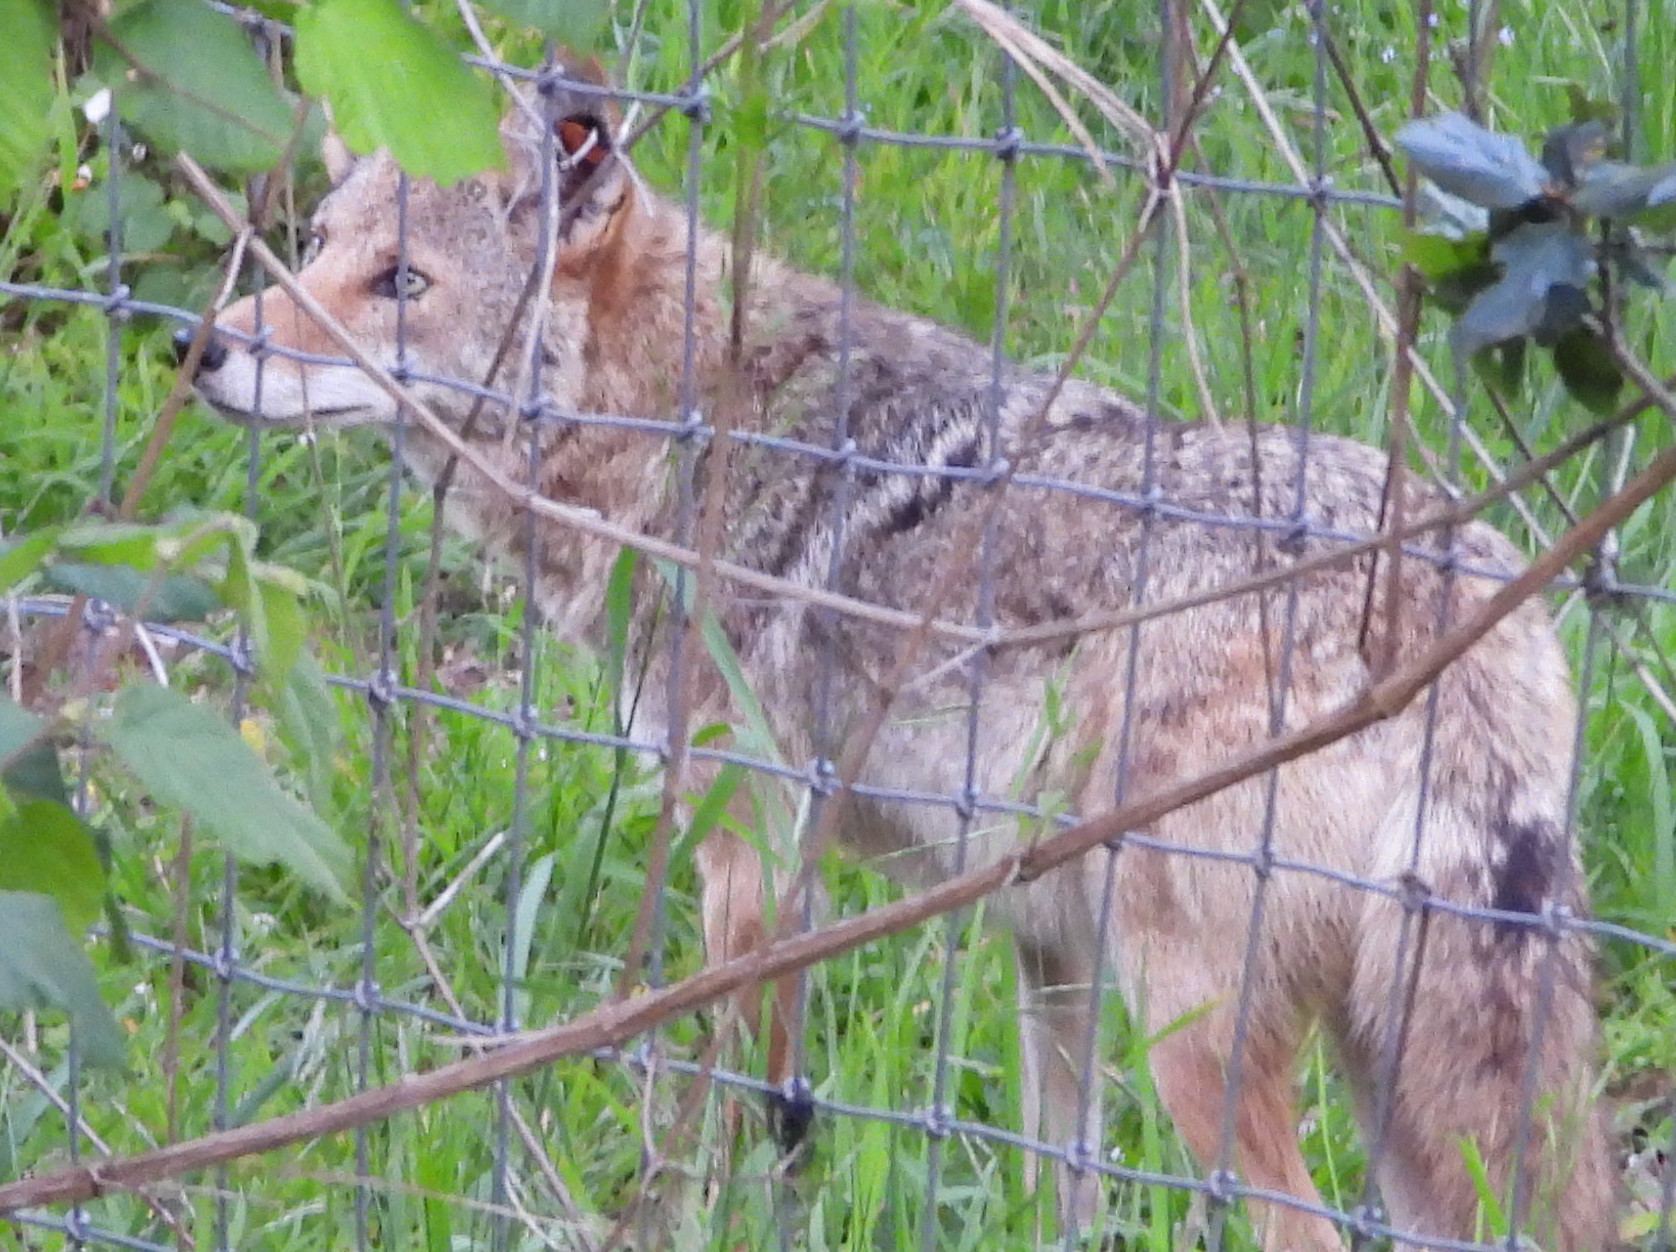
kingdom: Animalia
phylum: Chordata
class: Mammalia
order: Carnivora
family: Canidae
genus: Canis
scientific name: Canis latrans
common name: Coyote
